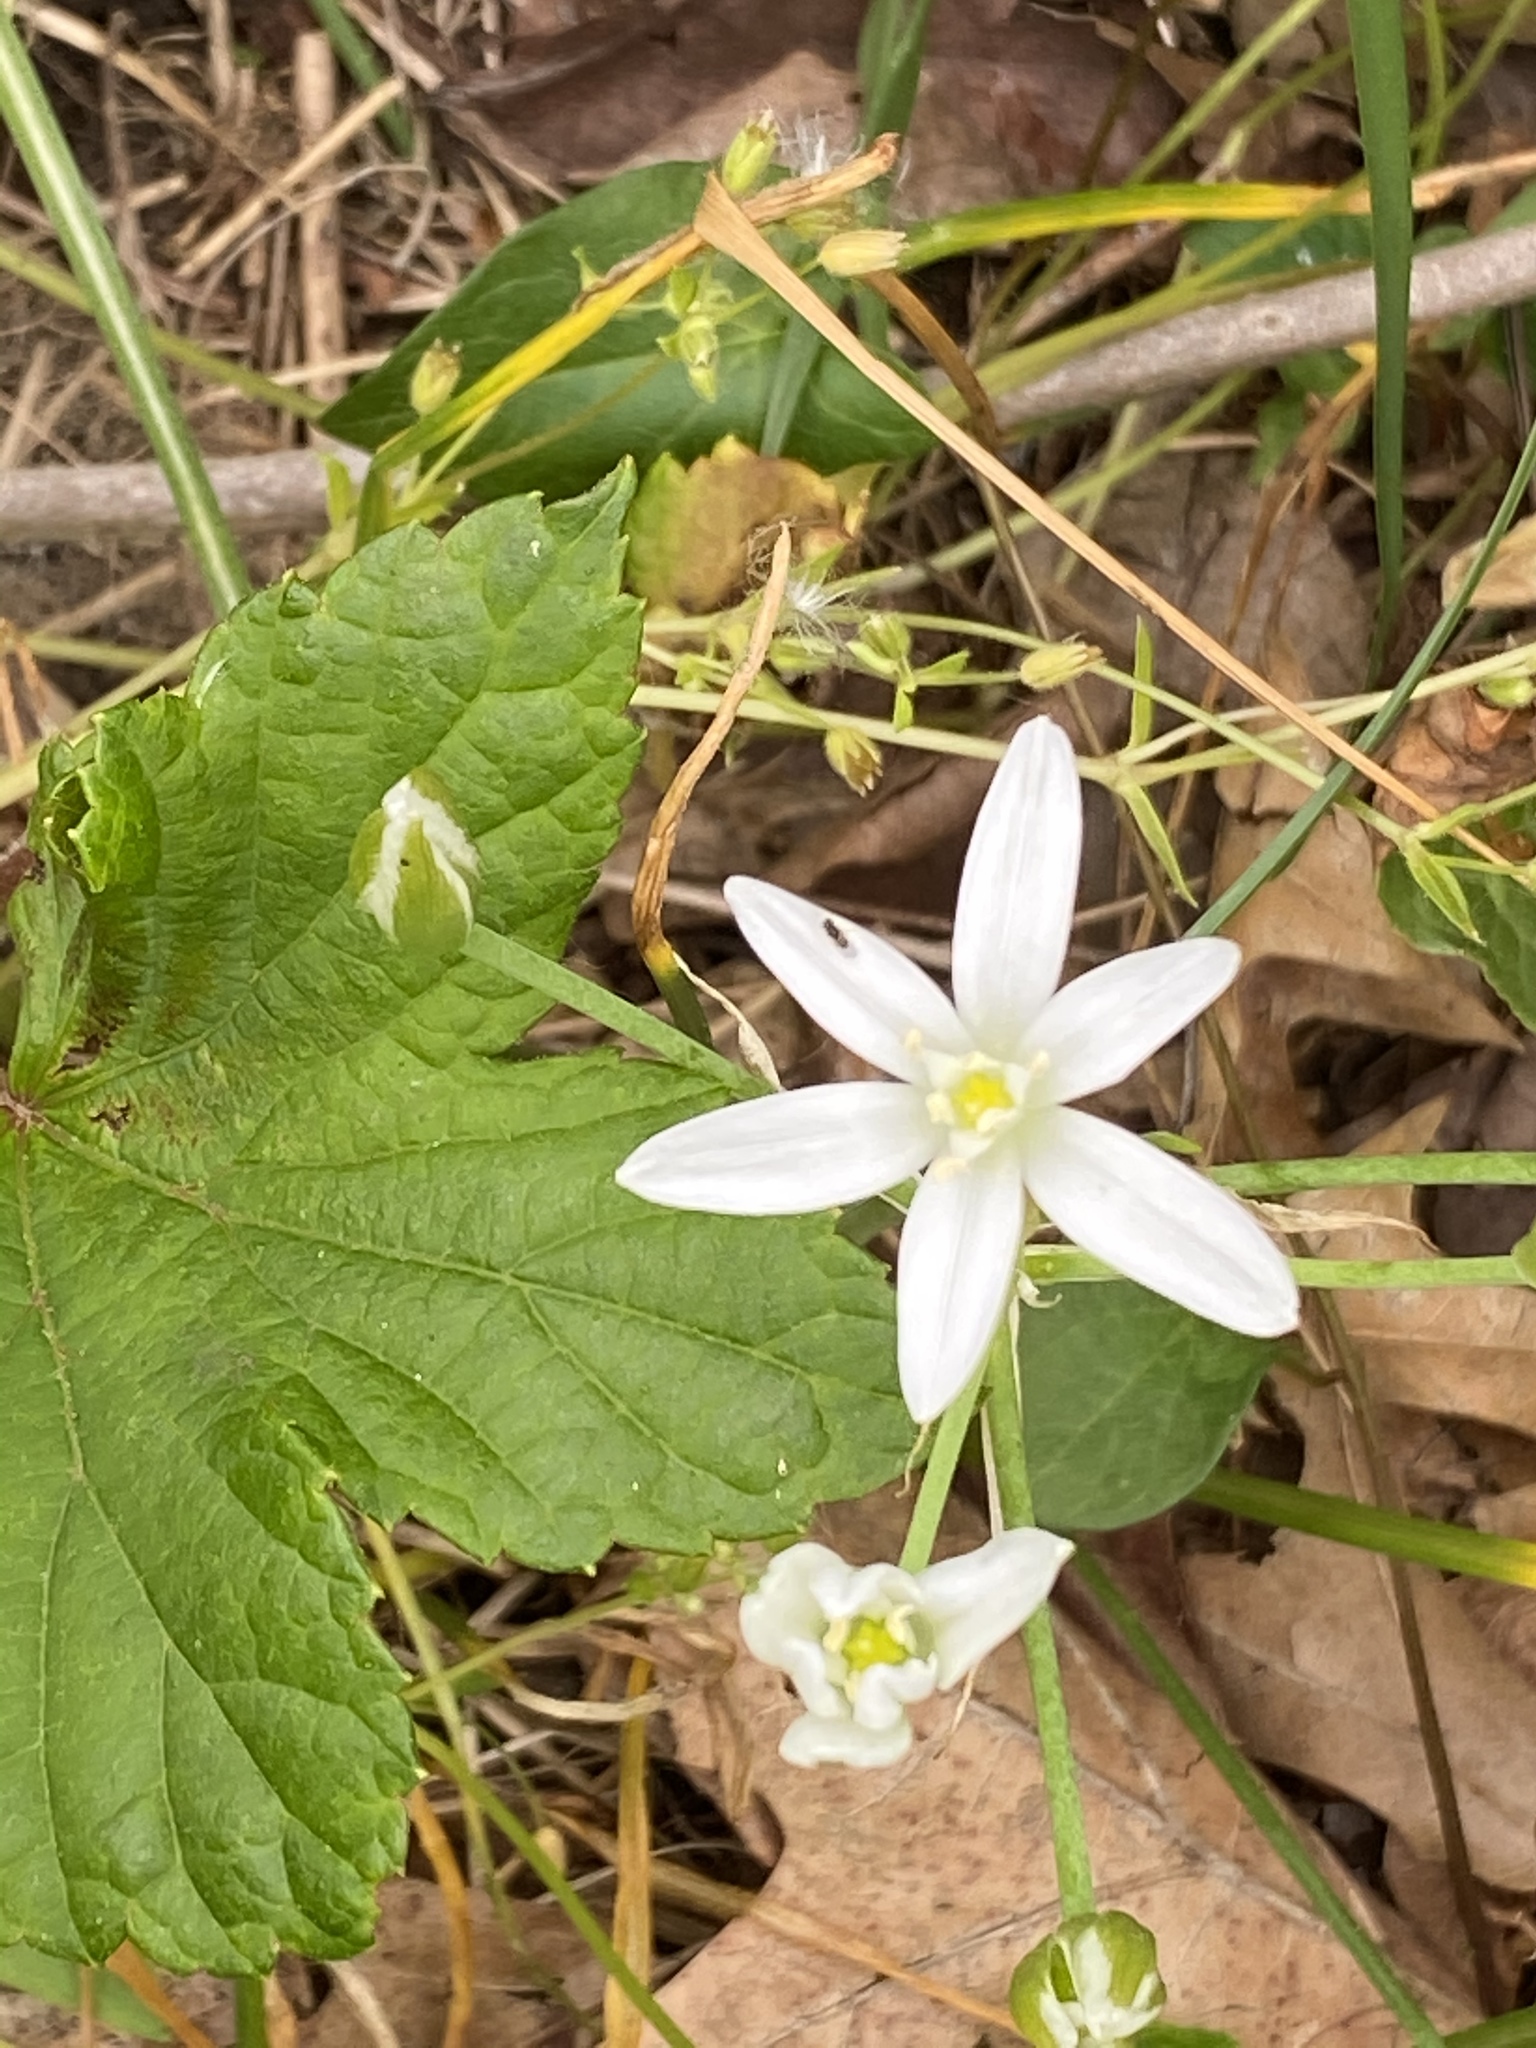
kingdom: Plantae
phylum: Tracheophyta
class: Liliopsida
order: Asparagales
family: Asparagaceae
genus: Ornithogalum
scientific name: Ornithogalum umbellatum
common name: Garden star-of-bethlehem
